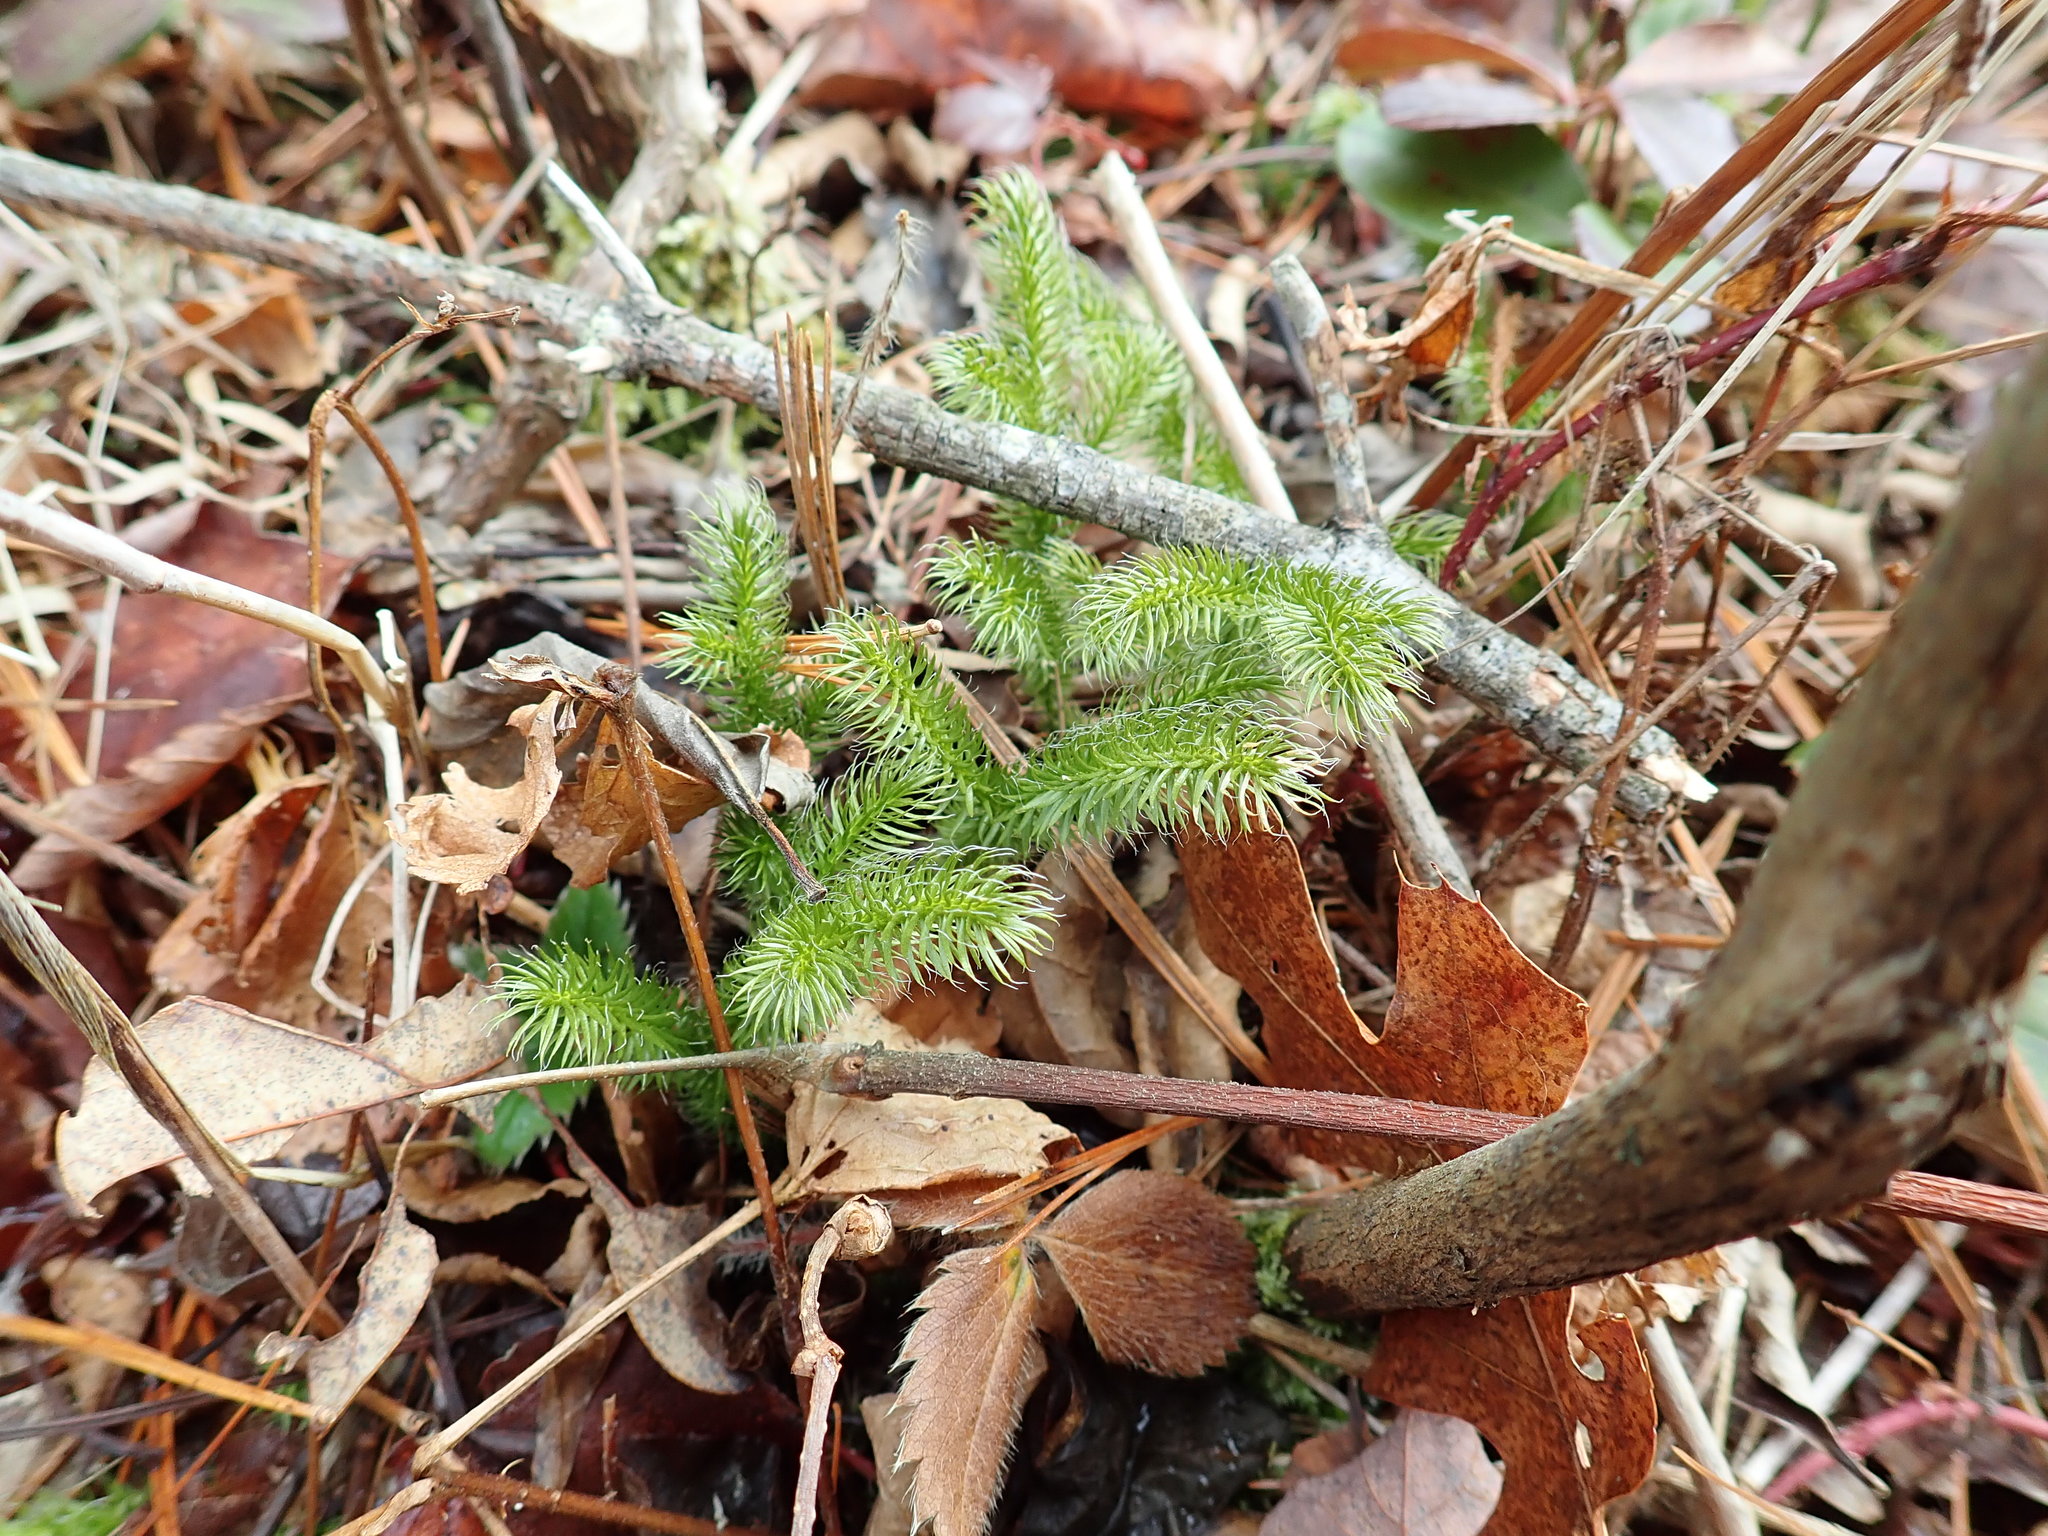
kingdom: Plantae
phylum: Tracheophyta
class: Lycopodiopsida
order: Lycopodiales
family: Lycopodiaceae
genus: Lycopodium
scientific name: Lycopodium clavatum
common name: Stag's-horn clubmoss
